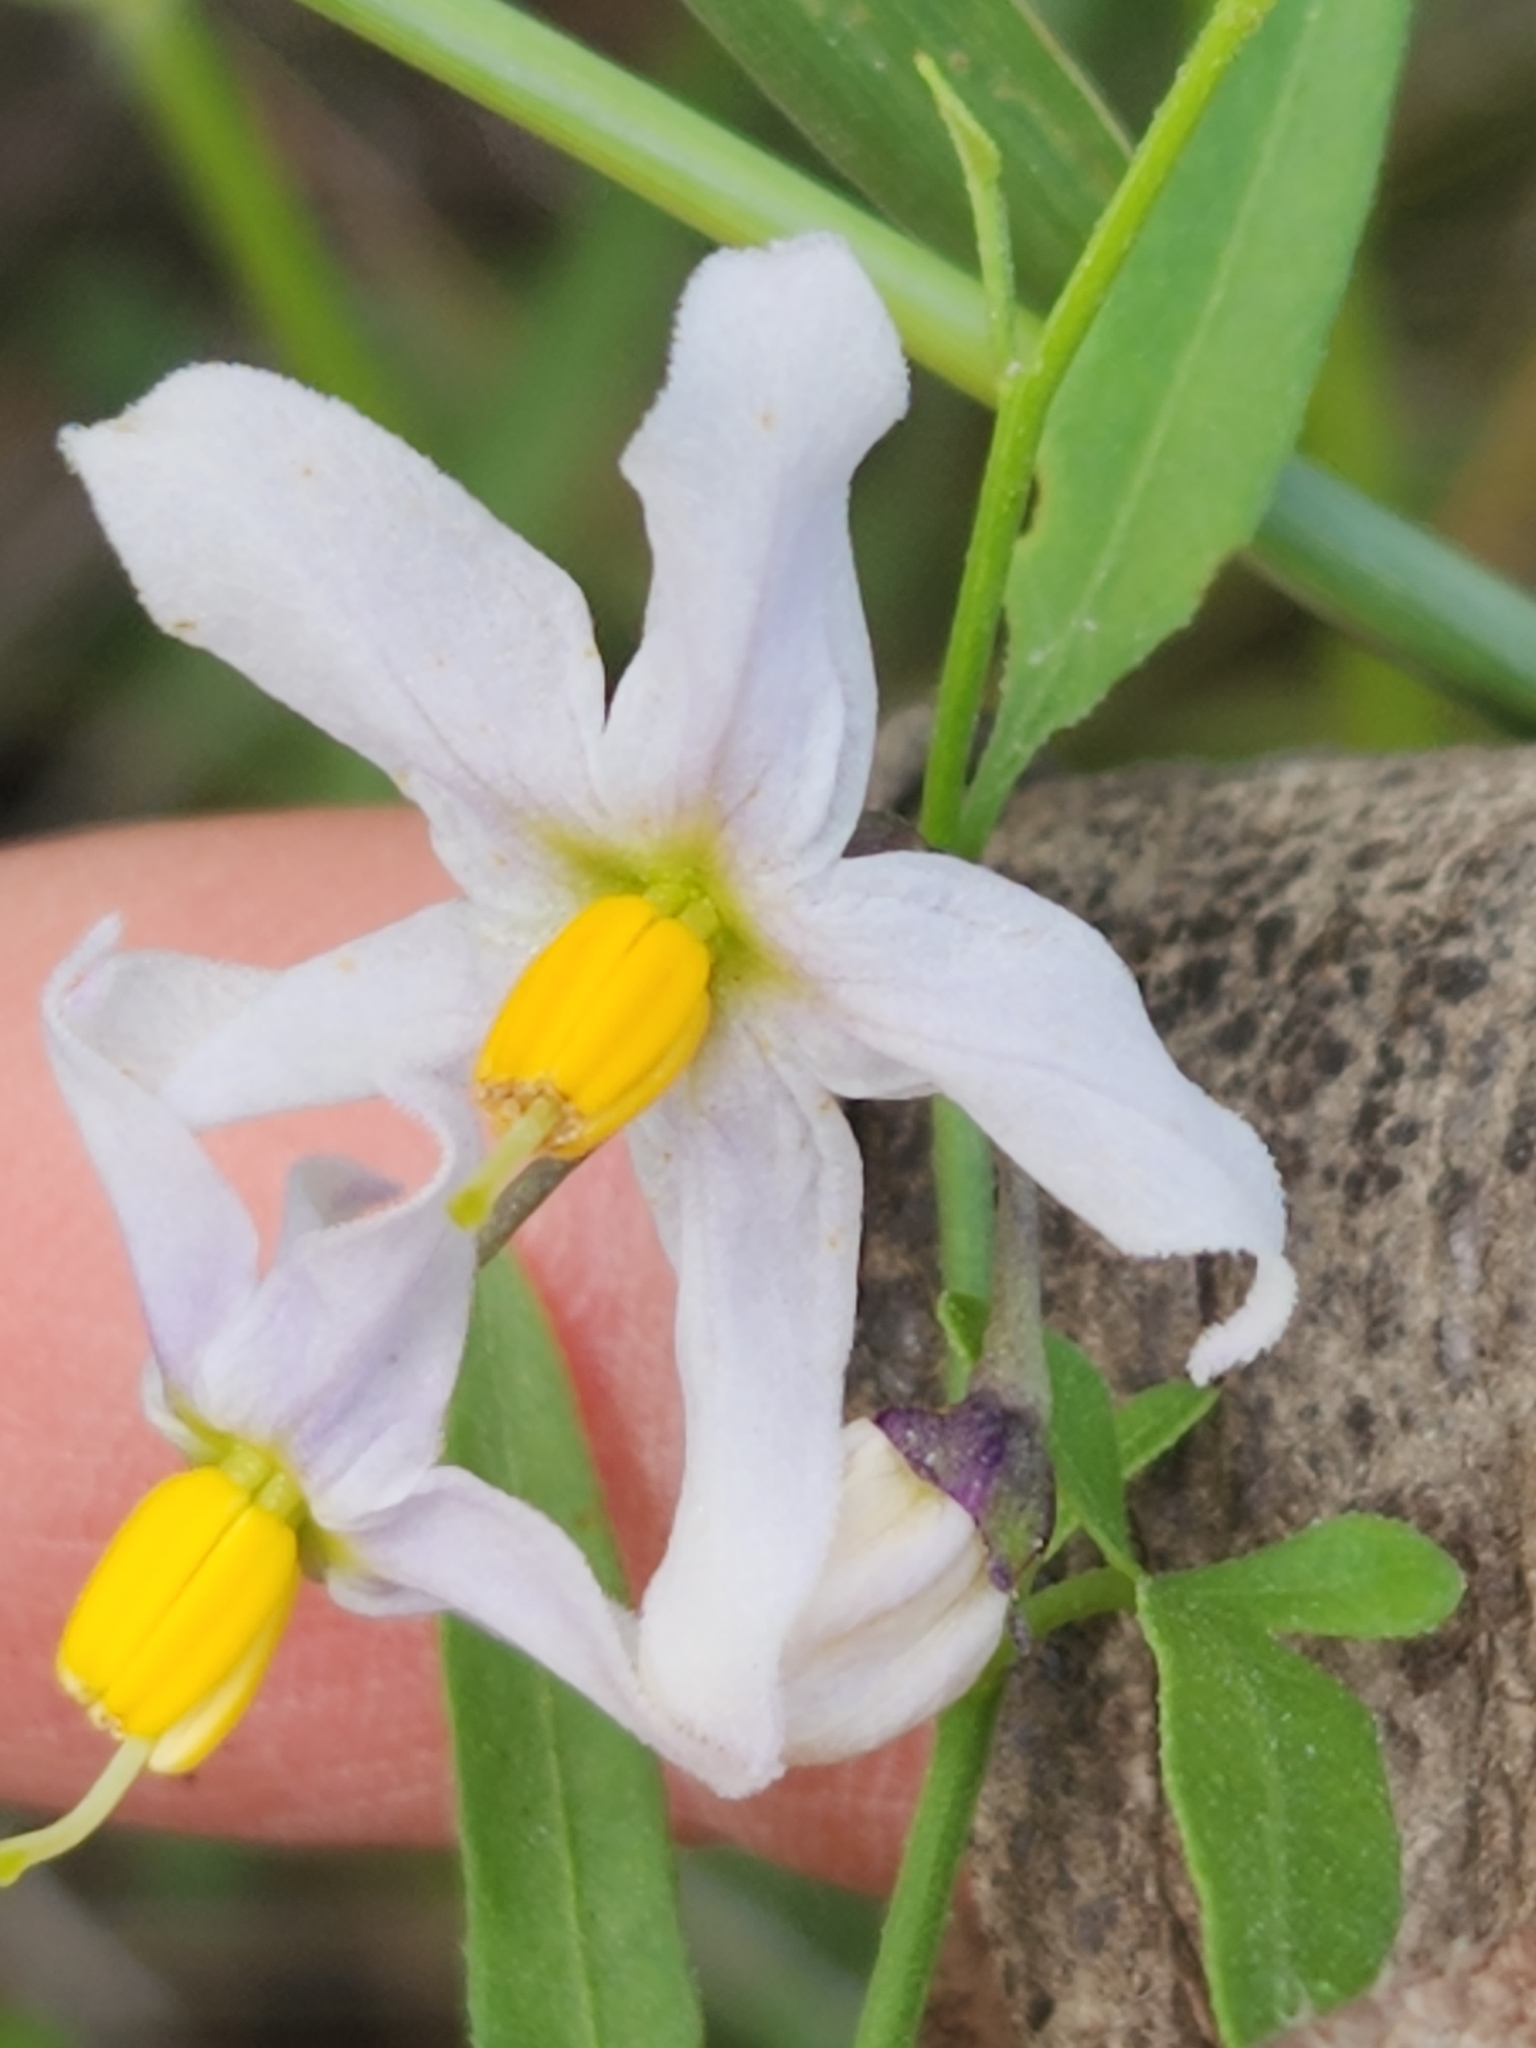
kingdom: Plantae
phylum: Tracheophyta
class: Magnoliopsida
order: Solanales
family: Solanaceae
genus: Solanum
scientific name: Solanum triquetrum
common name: Texas nightshade
